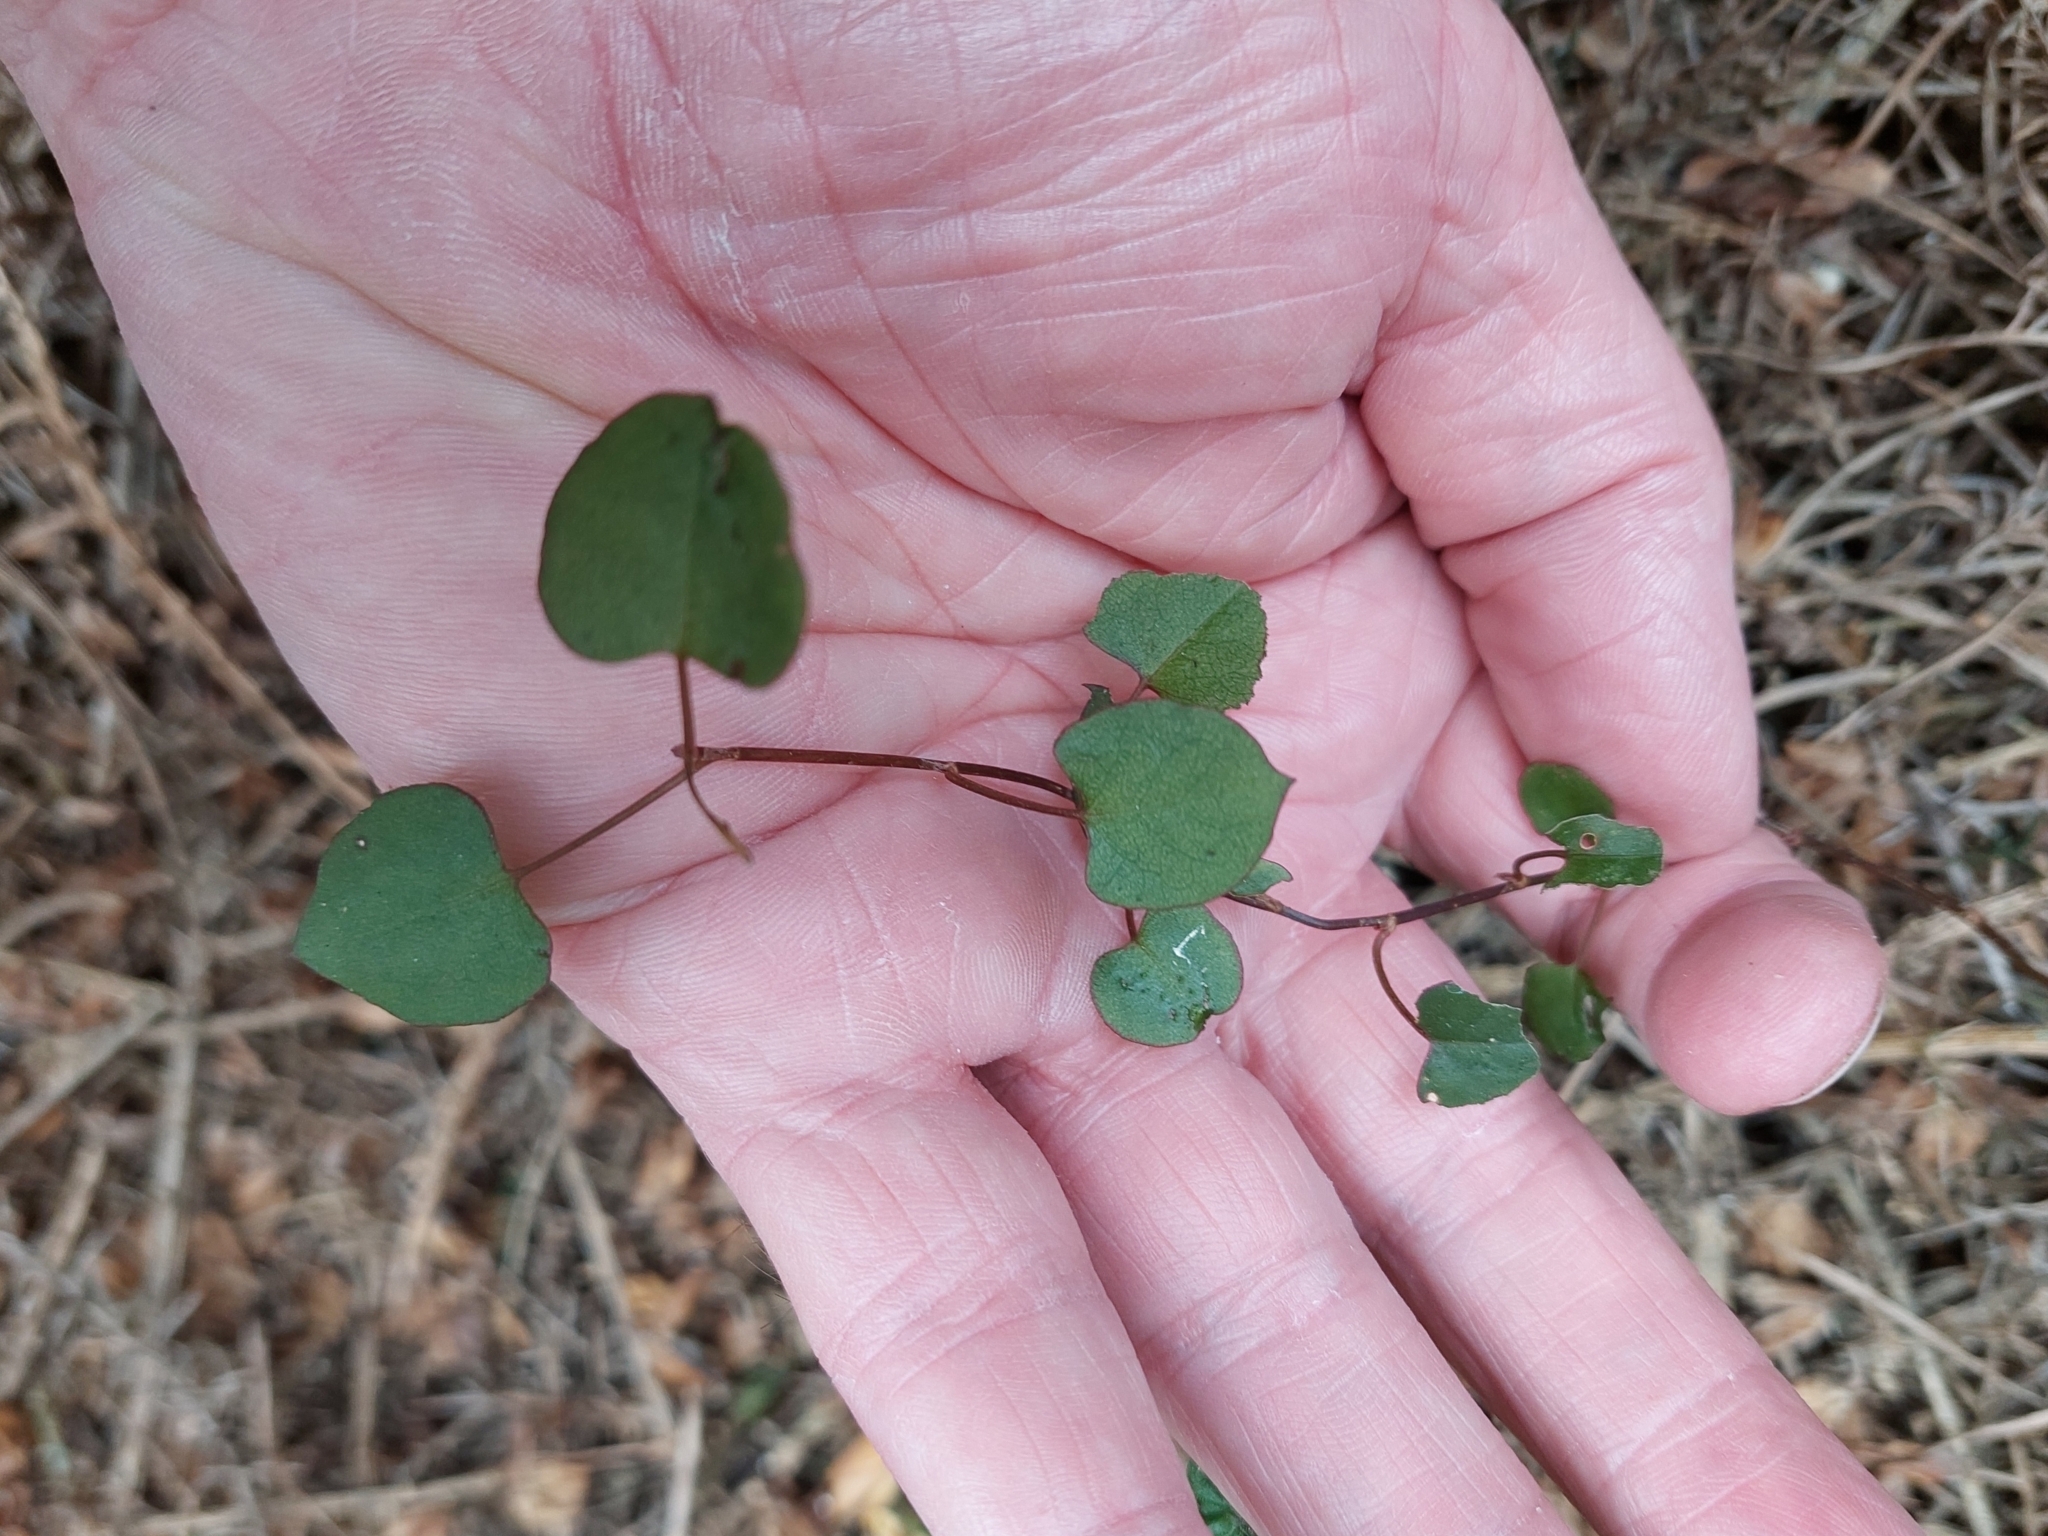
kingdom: Plantae
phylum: Tracheophyta
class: Magnoliopsida
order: Caryophyllales
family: Polygonaceae
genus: Muehlenbeckia
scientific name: Muehlenbeckia australis
